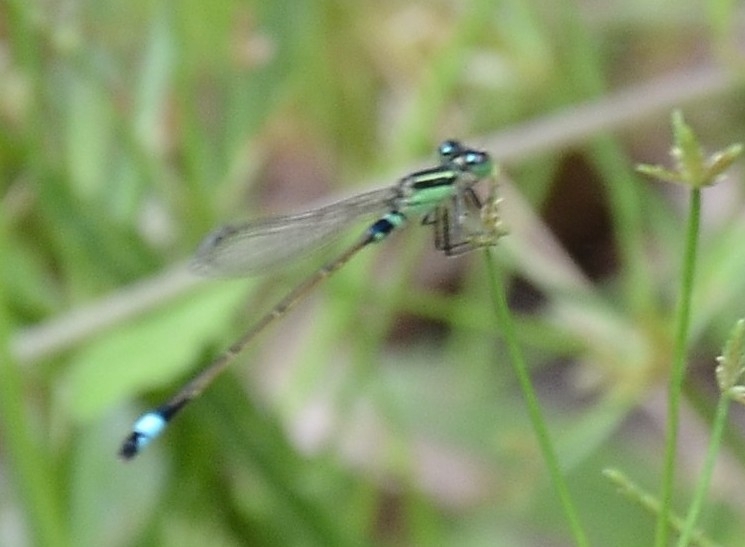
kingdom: Animalia
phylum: Arthropoda
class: Insecta
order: Odonata
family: Coenagrionidae
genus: Ischnura
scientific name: Ischnura senegalensis
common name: Tropical bluetail
